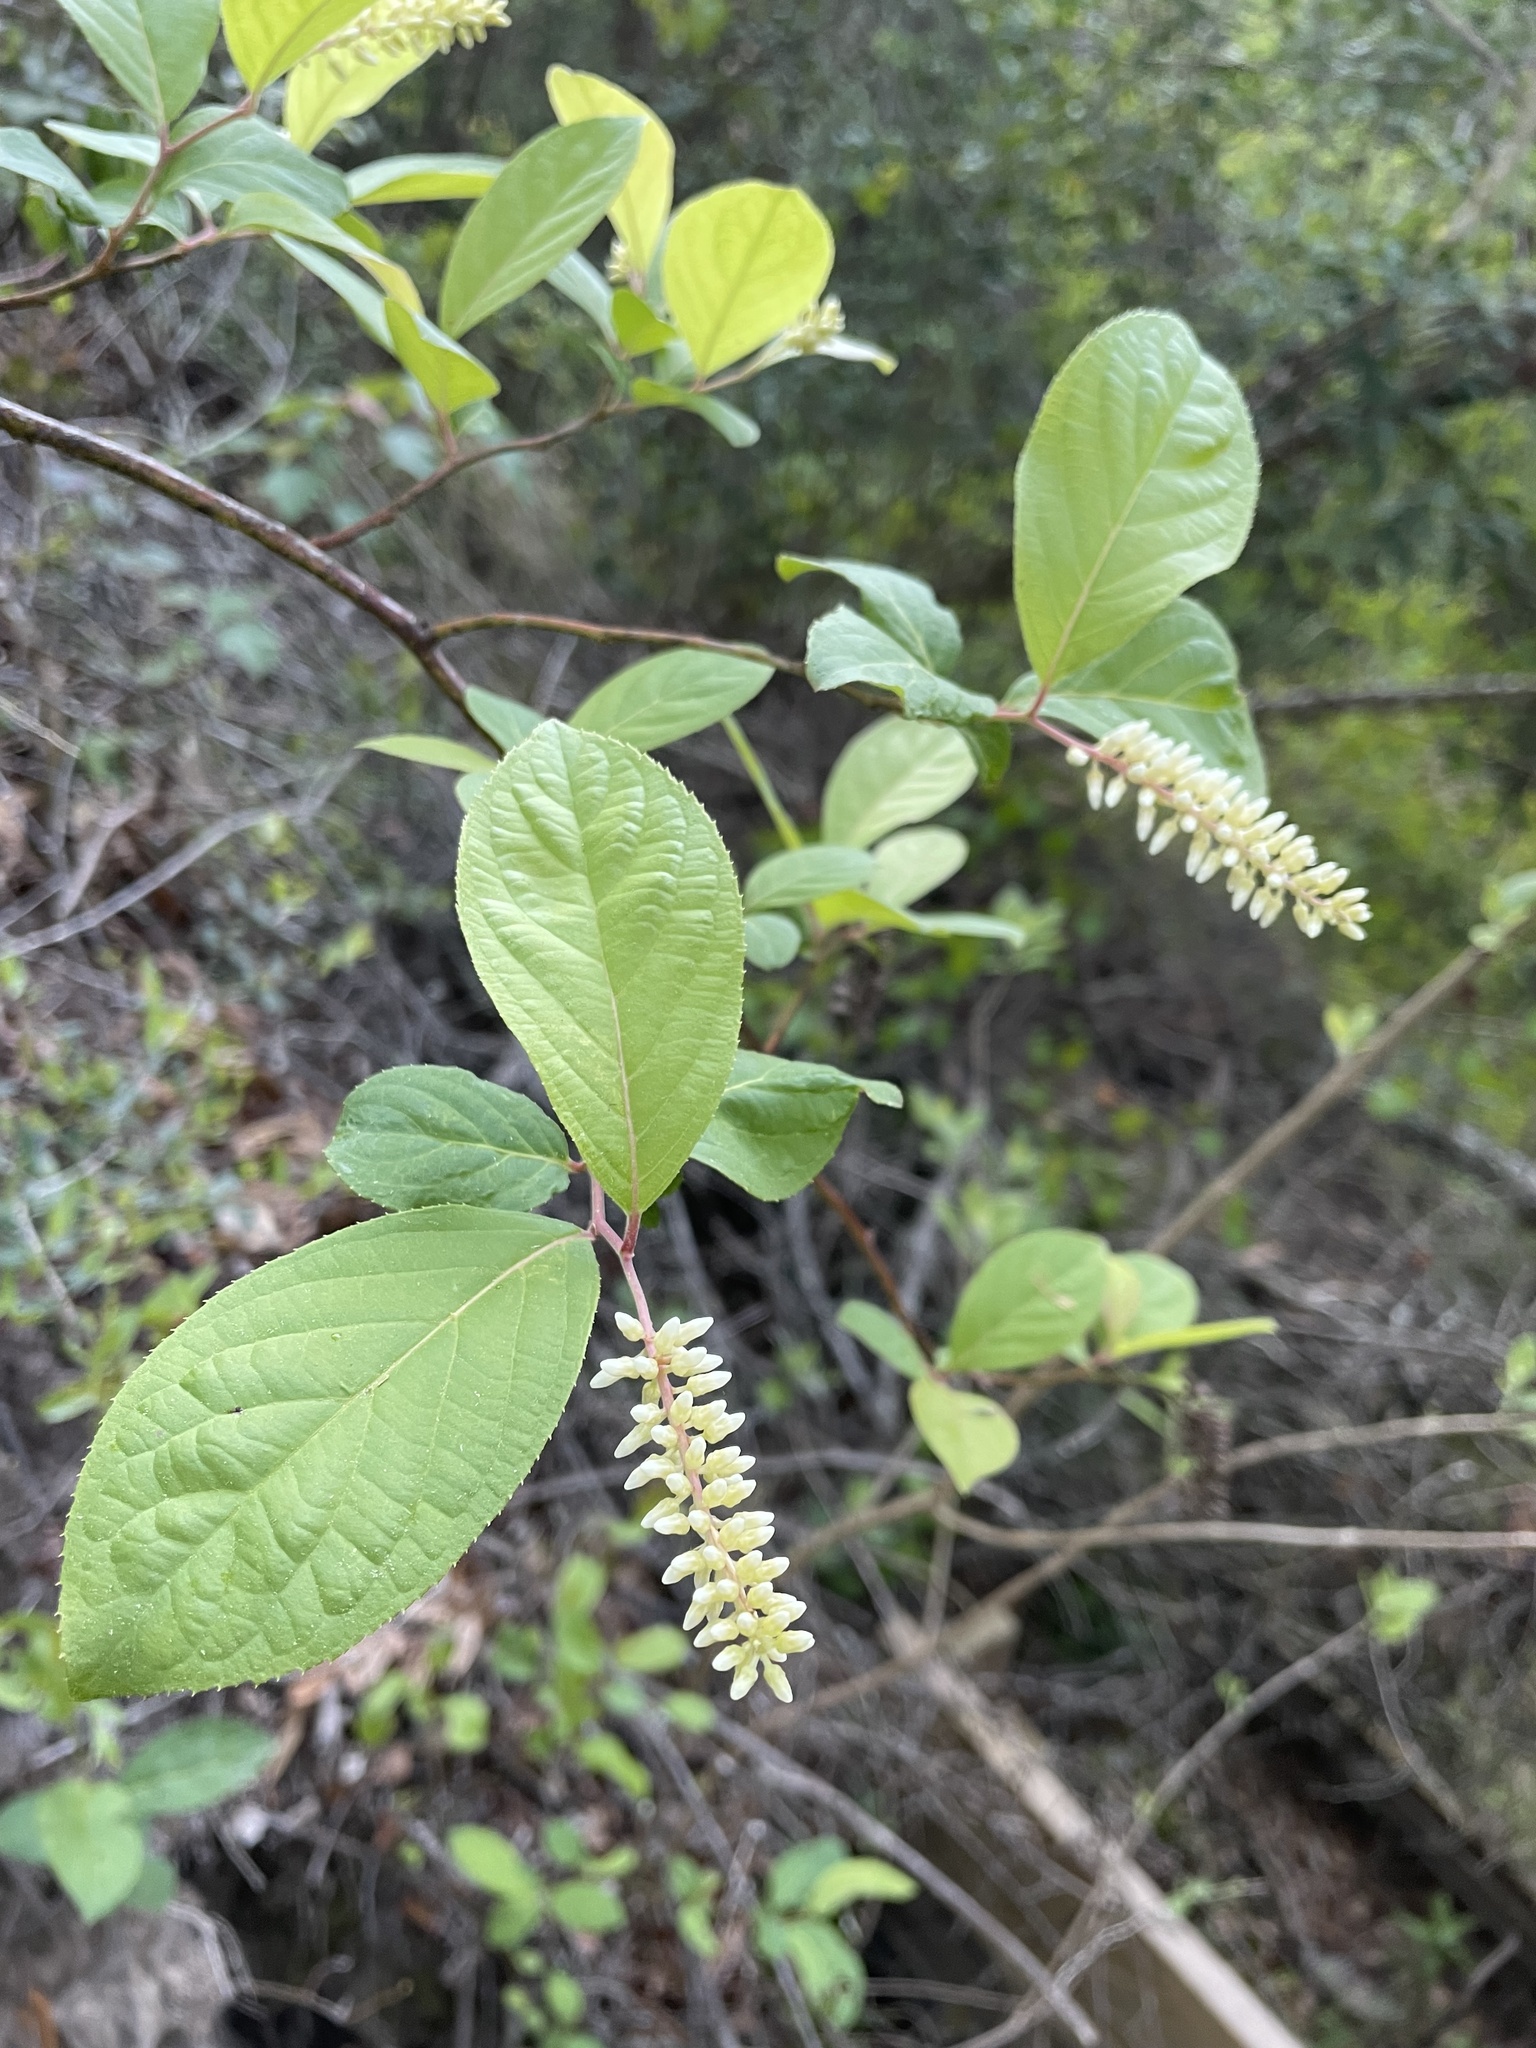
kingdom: Plantae
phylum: Tracheophyta
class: Magnoliopsida
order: Saxifragales
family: Iteaceae
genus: Itea
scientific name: Itea virginica
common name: Sweetspire
